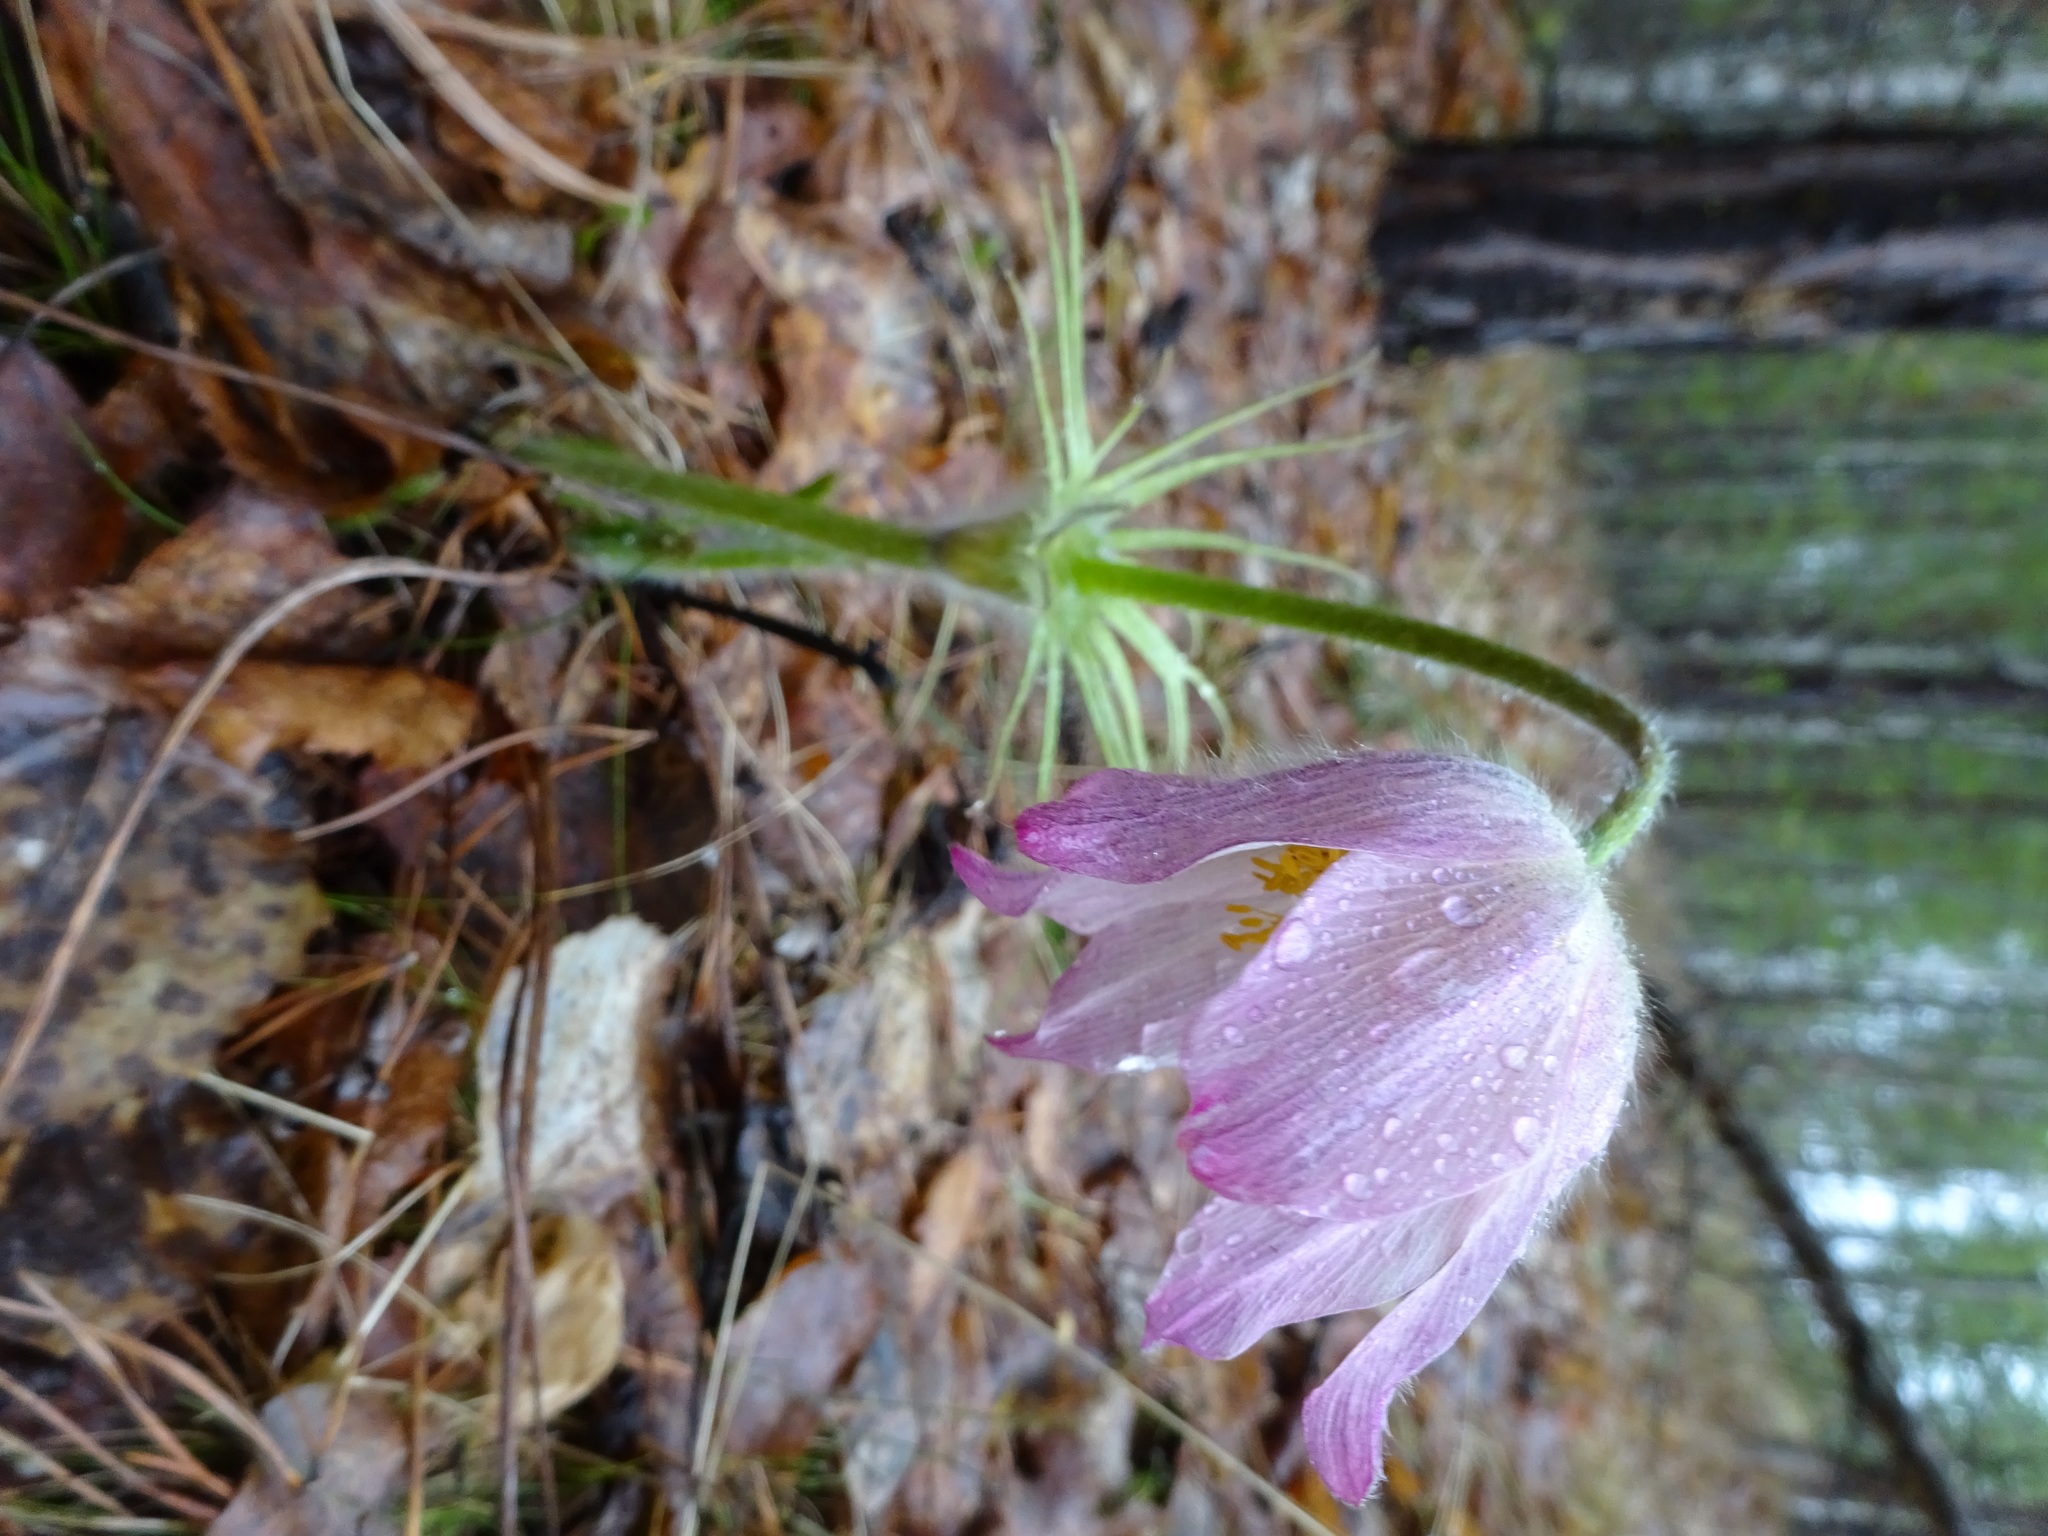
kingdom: Plantae
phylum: Tracheophyta
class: Magnoliopsida
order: Ranunculales
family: Ranunculaceae
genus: Pulsatilla
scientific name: Pulsatilla patens
